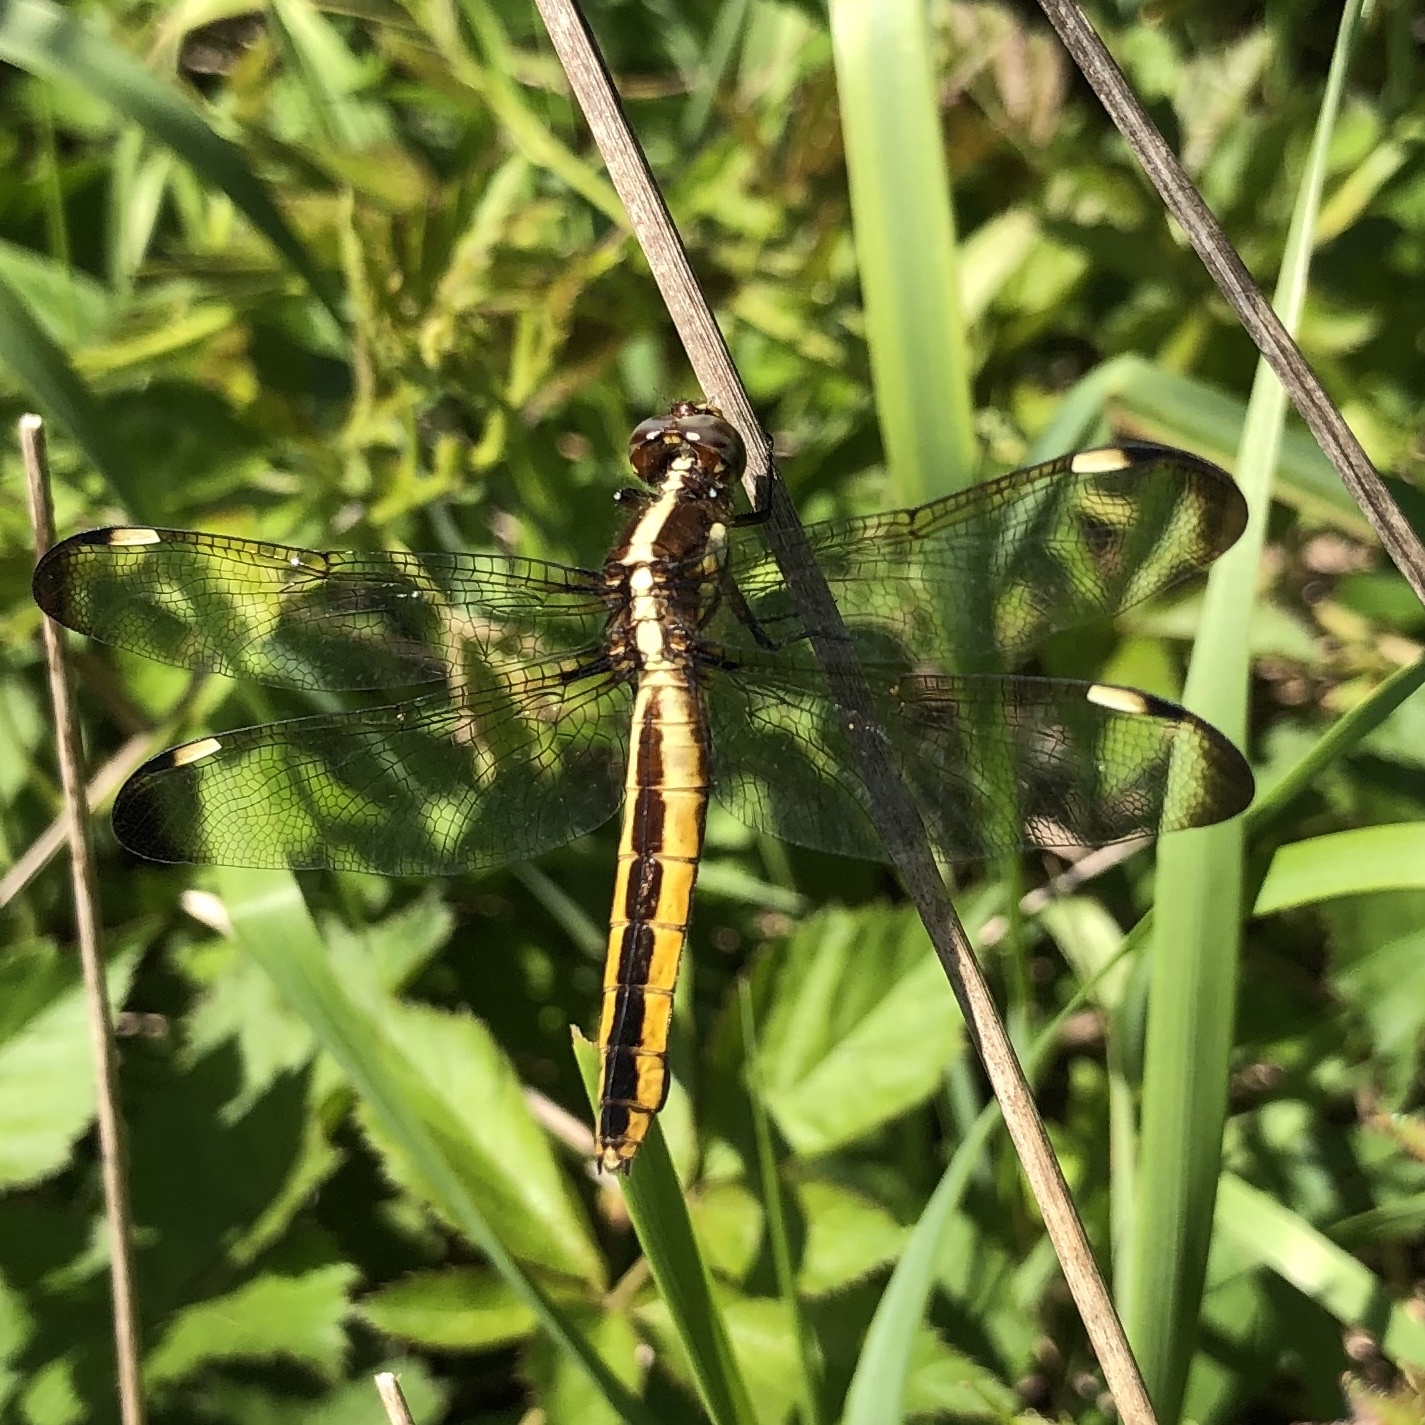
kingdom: Animalia
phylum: Arthropoda
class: Insecta
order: Odonata
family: Libellulidae
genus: Libellula
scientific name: Libellula cyanea
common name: Spangled skimmer
